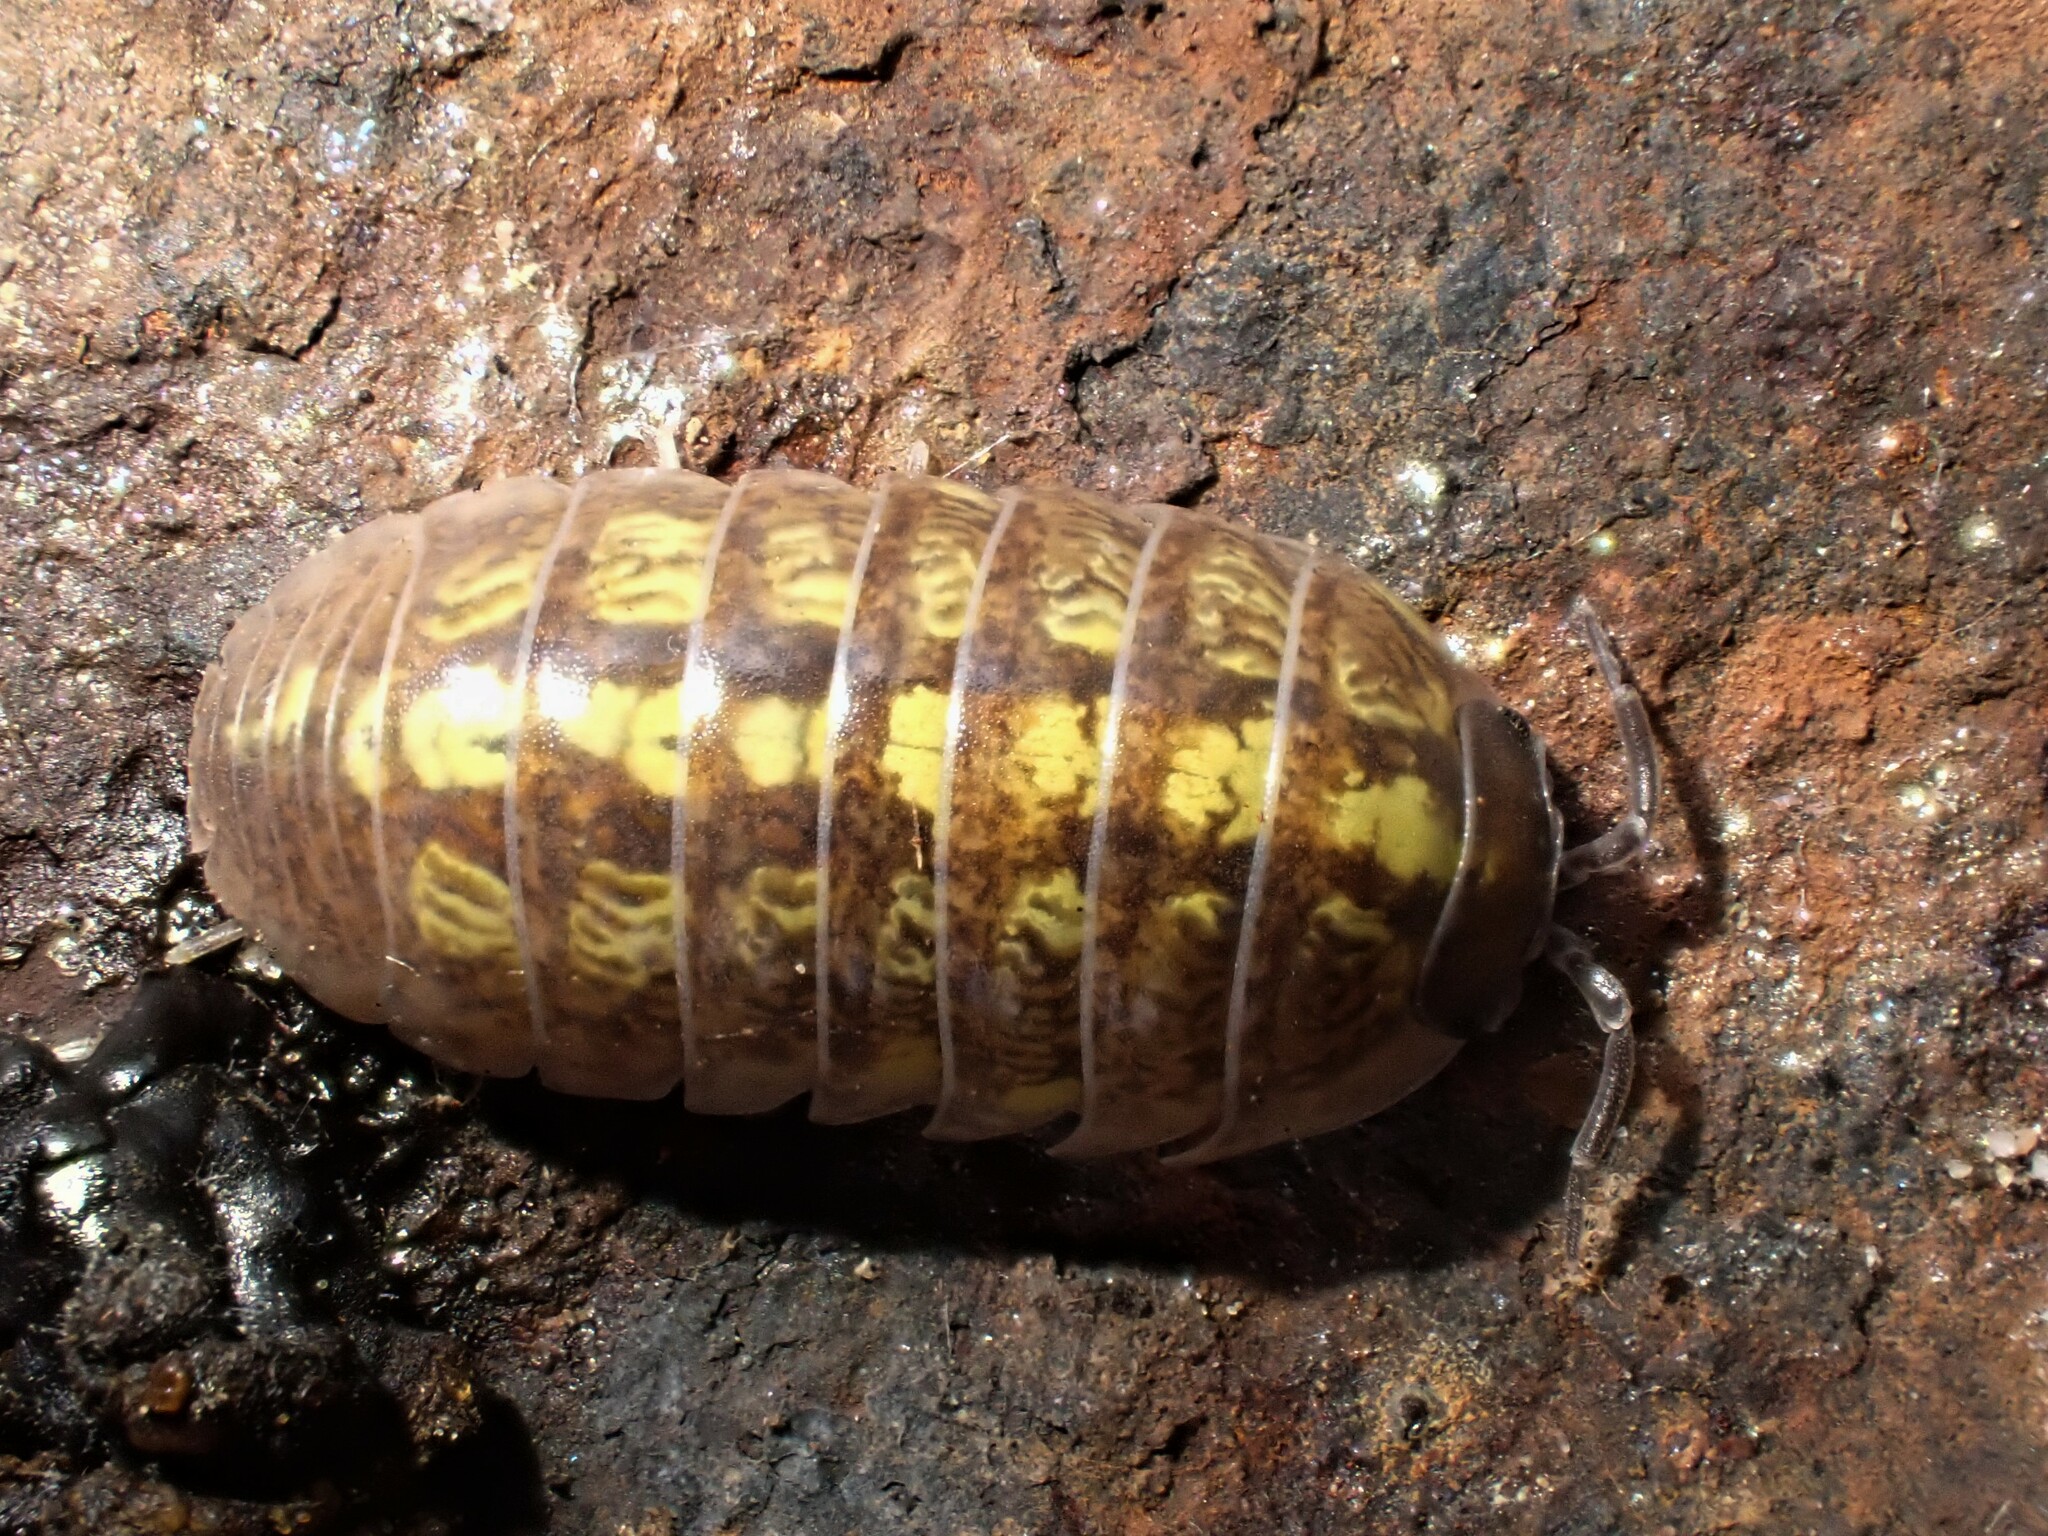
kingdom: Animalia
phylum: Arthropoda
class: Malacostraca
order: Isopoda
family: Armadillidiidae
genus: Armadillidium
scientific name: Armadillidium vulgare
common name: Common pill woodlouse
